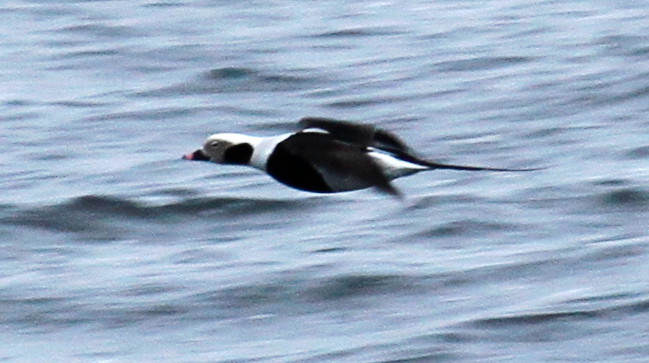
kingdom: Animalia
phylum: Chordata
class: Aves
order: Anseriformes
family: Anatidae
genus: Clangula
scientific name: Clangula hyemalis
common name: Long-tailed duck
